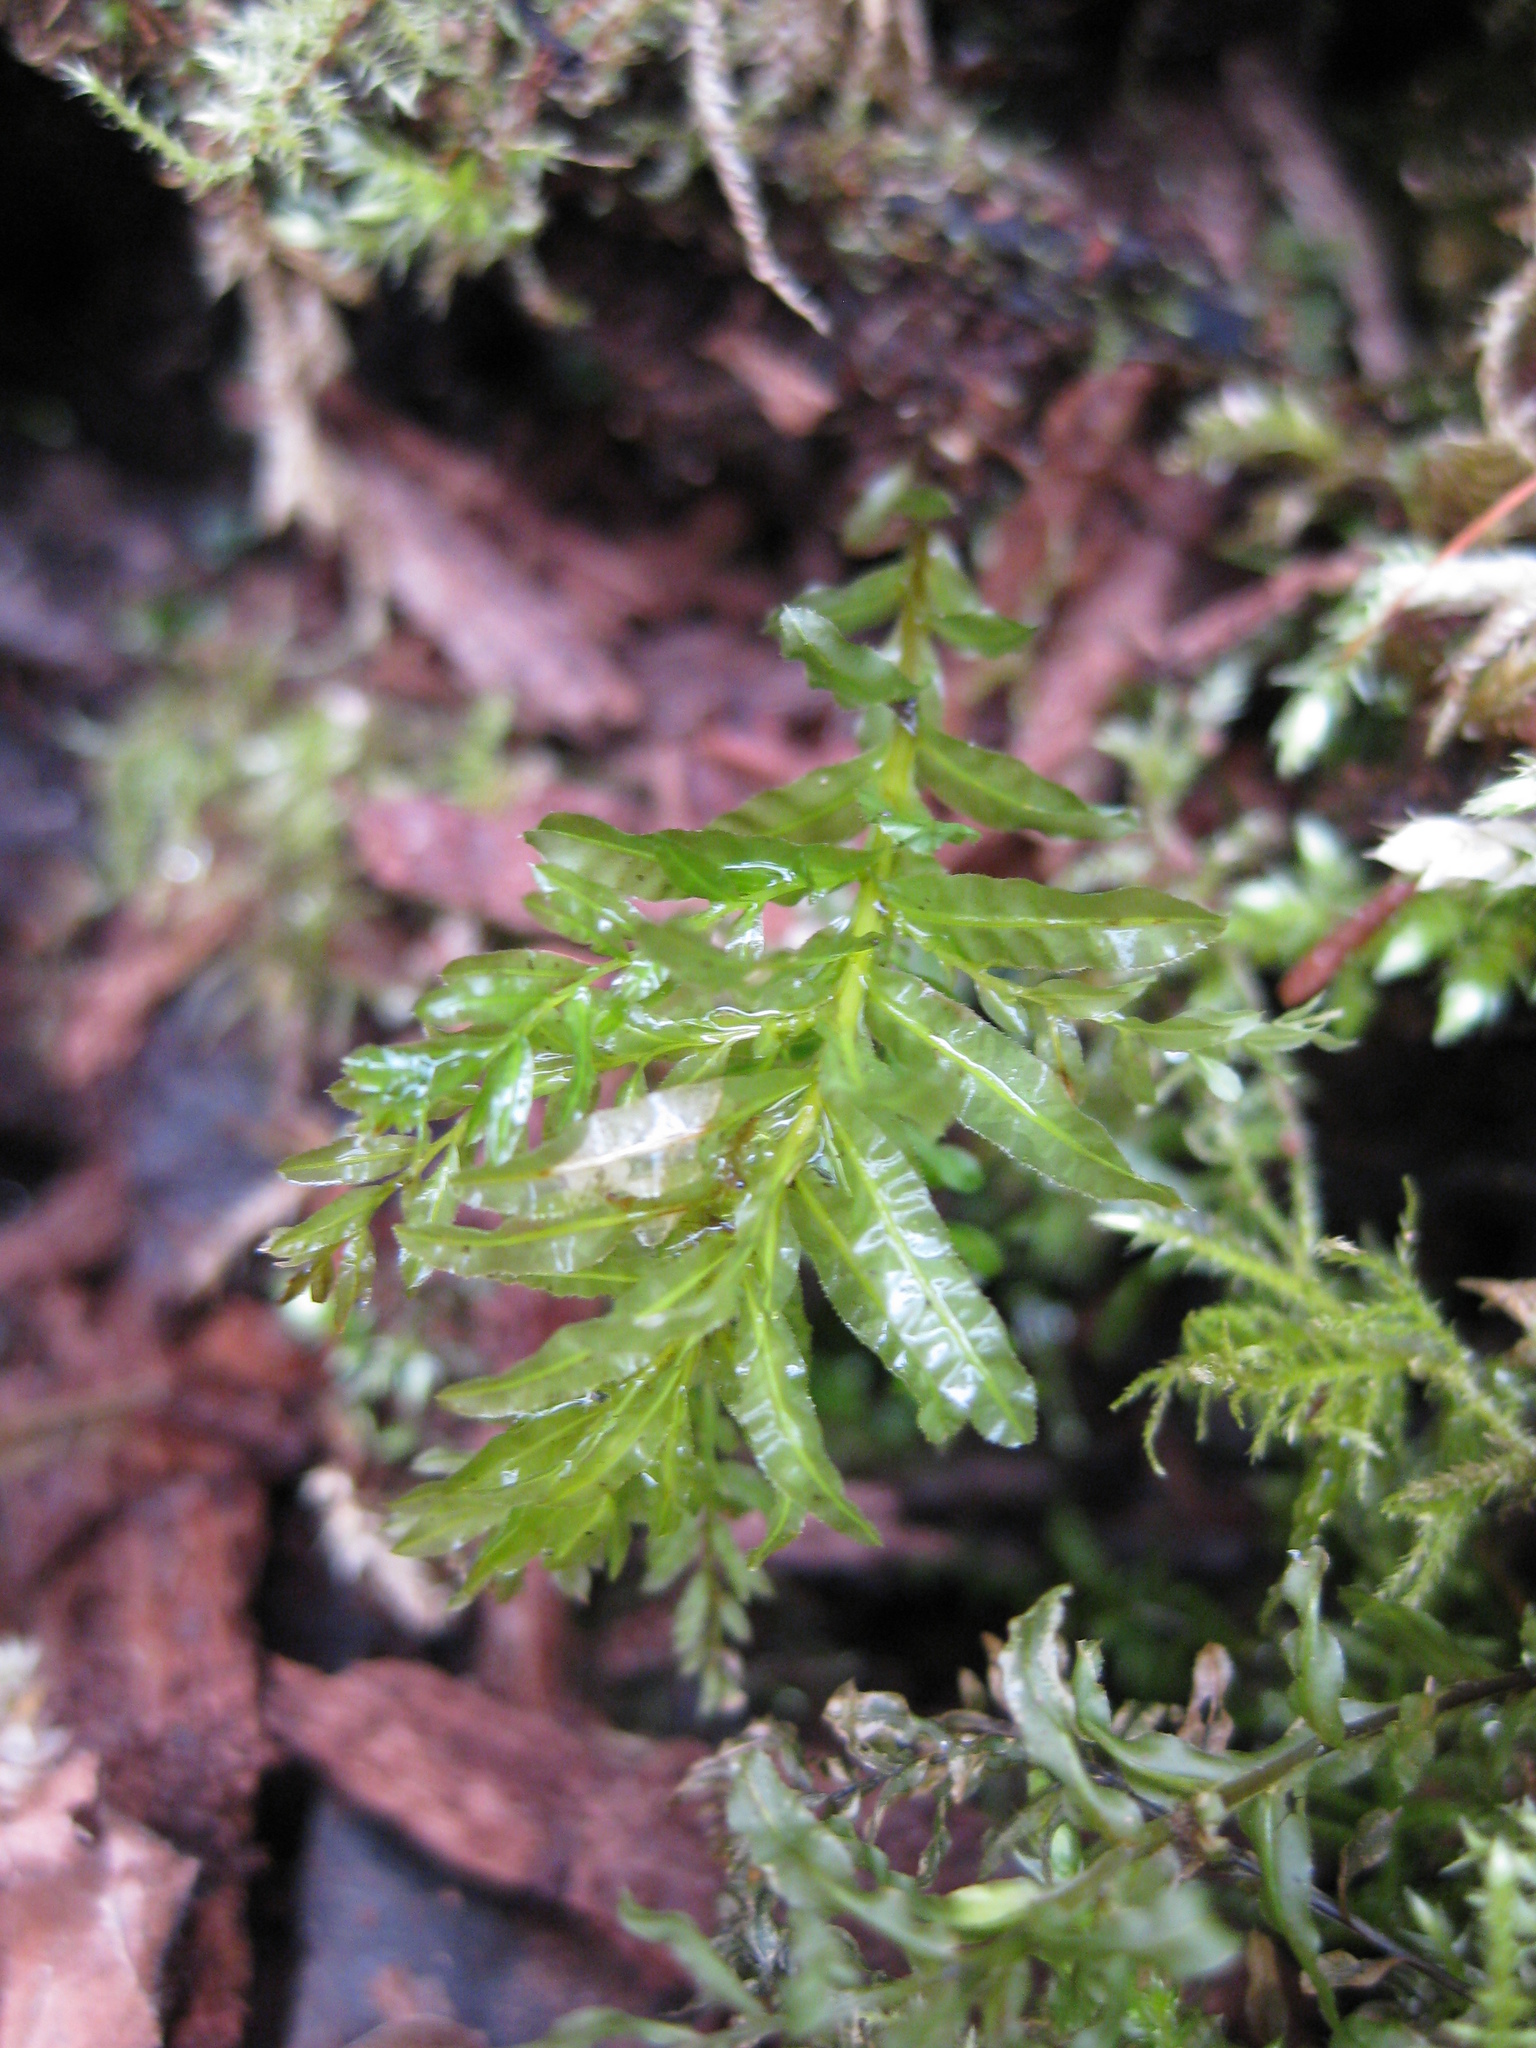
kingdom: Plantae
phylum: Bryophyta
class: Bryopsida
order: Bryales
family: Mniaceae
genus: Plagiomnium
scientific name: Plagiomnium undulatum
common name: Hart's-tongue thyme-moss
